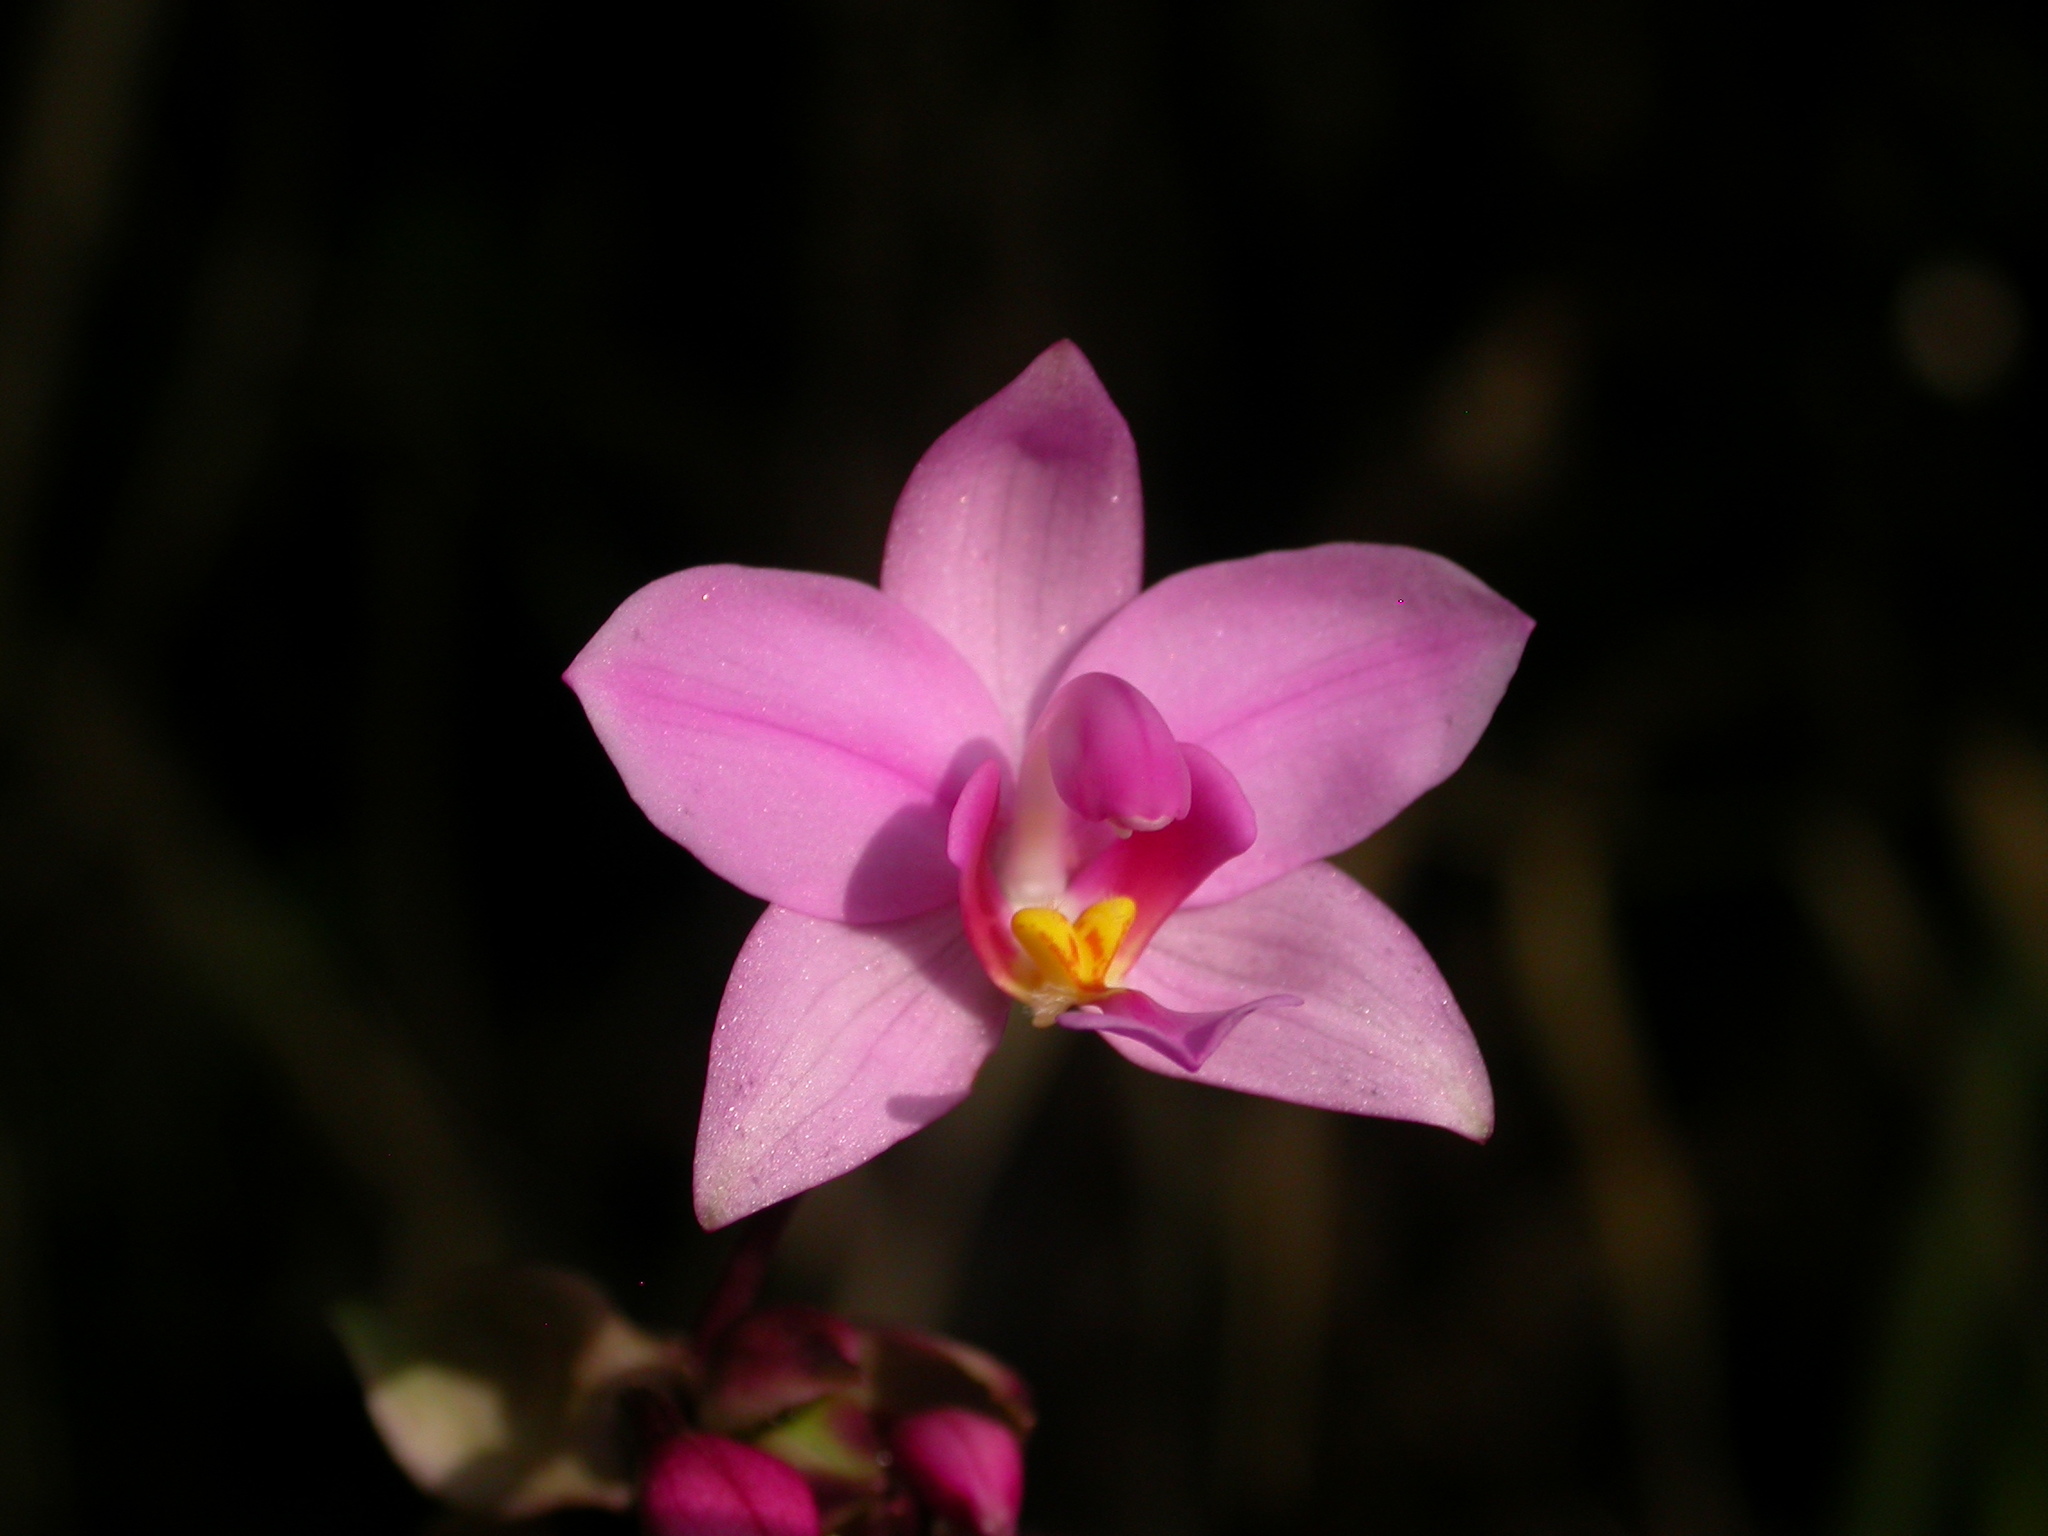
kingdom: Plantae
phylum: Tracheophyta
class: Liliopsida
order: Asparagales
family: Orchidaceae
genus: Spathoglottis
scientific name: Spathoglottis plicata
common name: Philippine ground orchid
